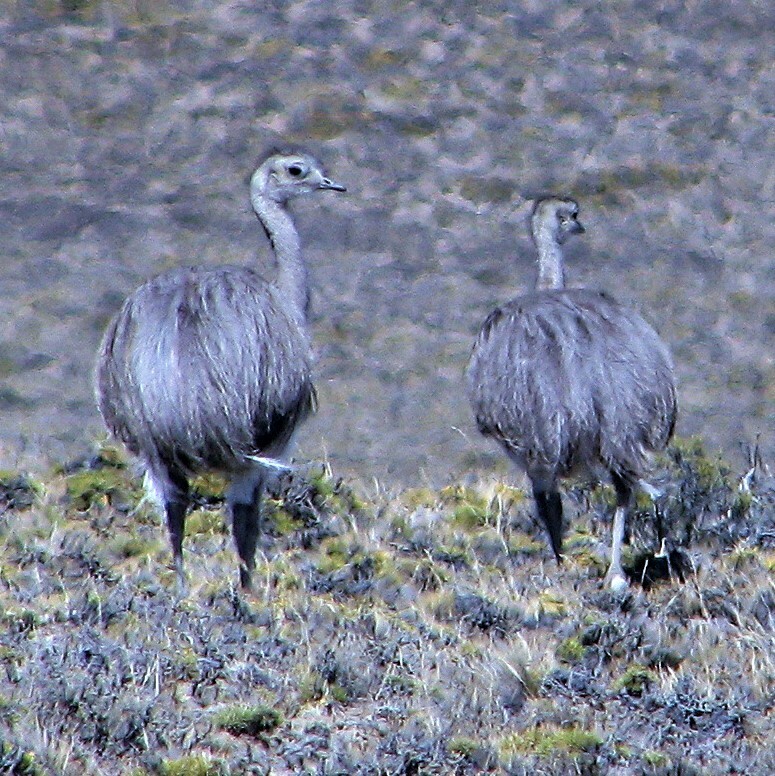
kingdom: Animalia
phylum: Chordata
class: Aves
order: Rheiformes
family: Rheidae
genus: Rhea
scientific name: Rhea pennata
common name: Lesser rhea
